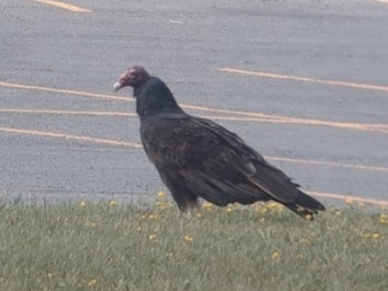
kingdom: Animalia
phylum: Chordata
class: Aves
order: Accipitriformes
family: Cathartidae
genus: Cathartes
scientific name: Cathartes aura
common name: Turkey vulture
